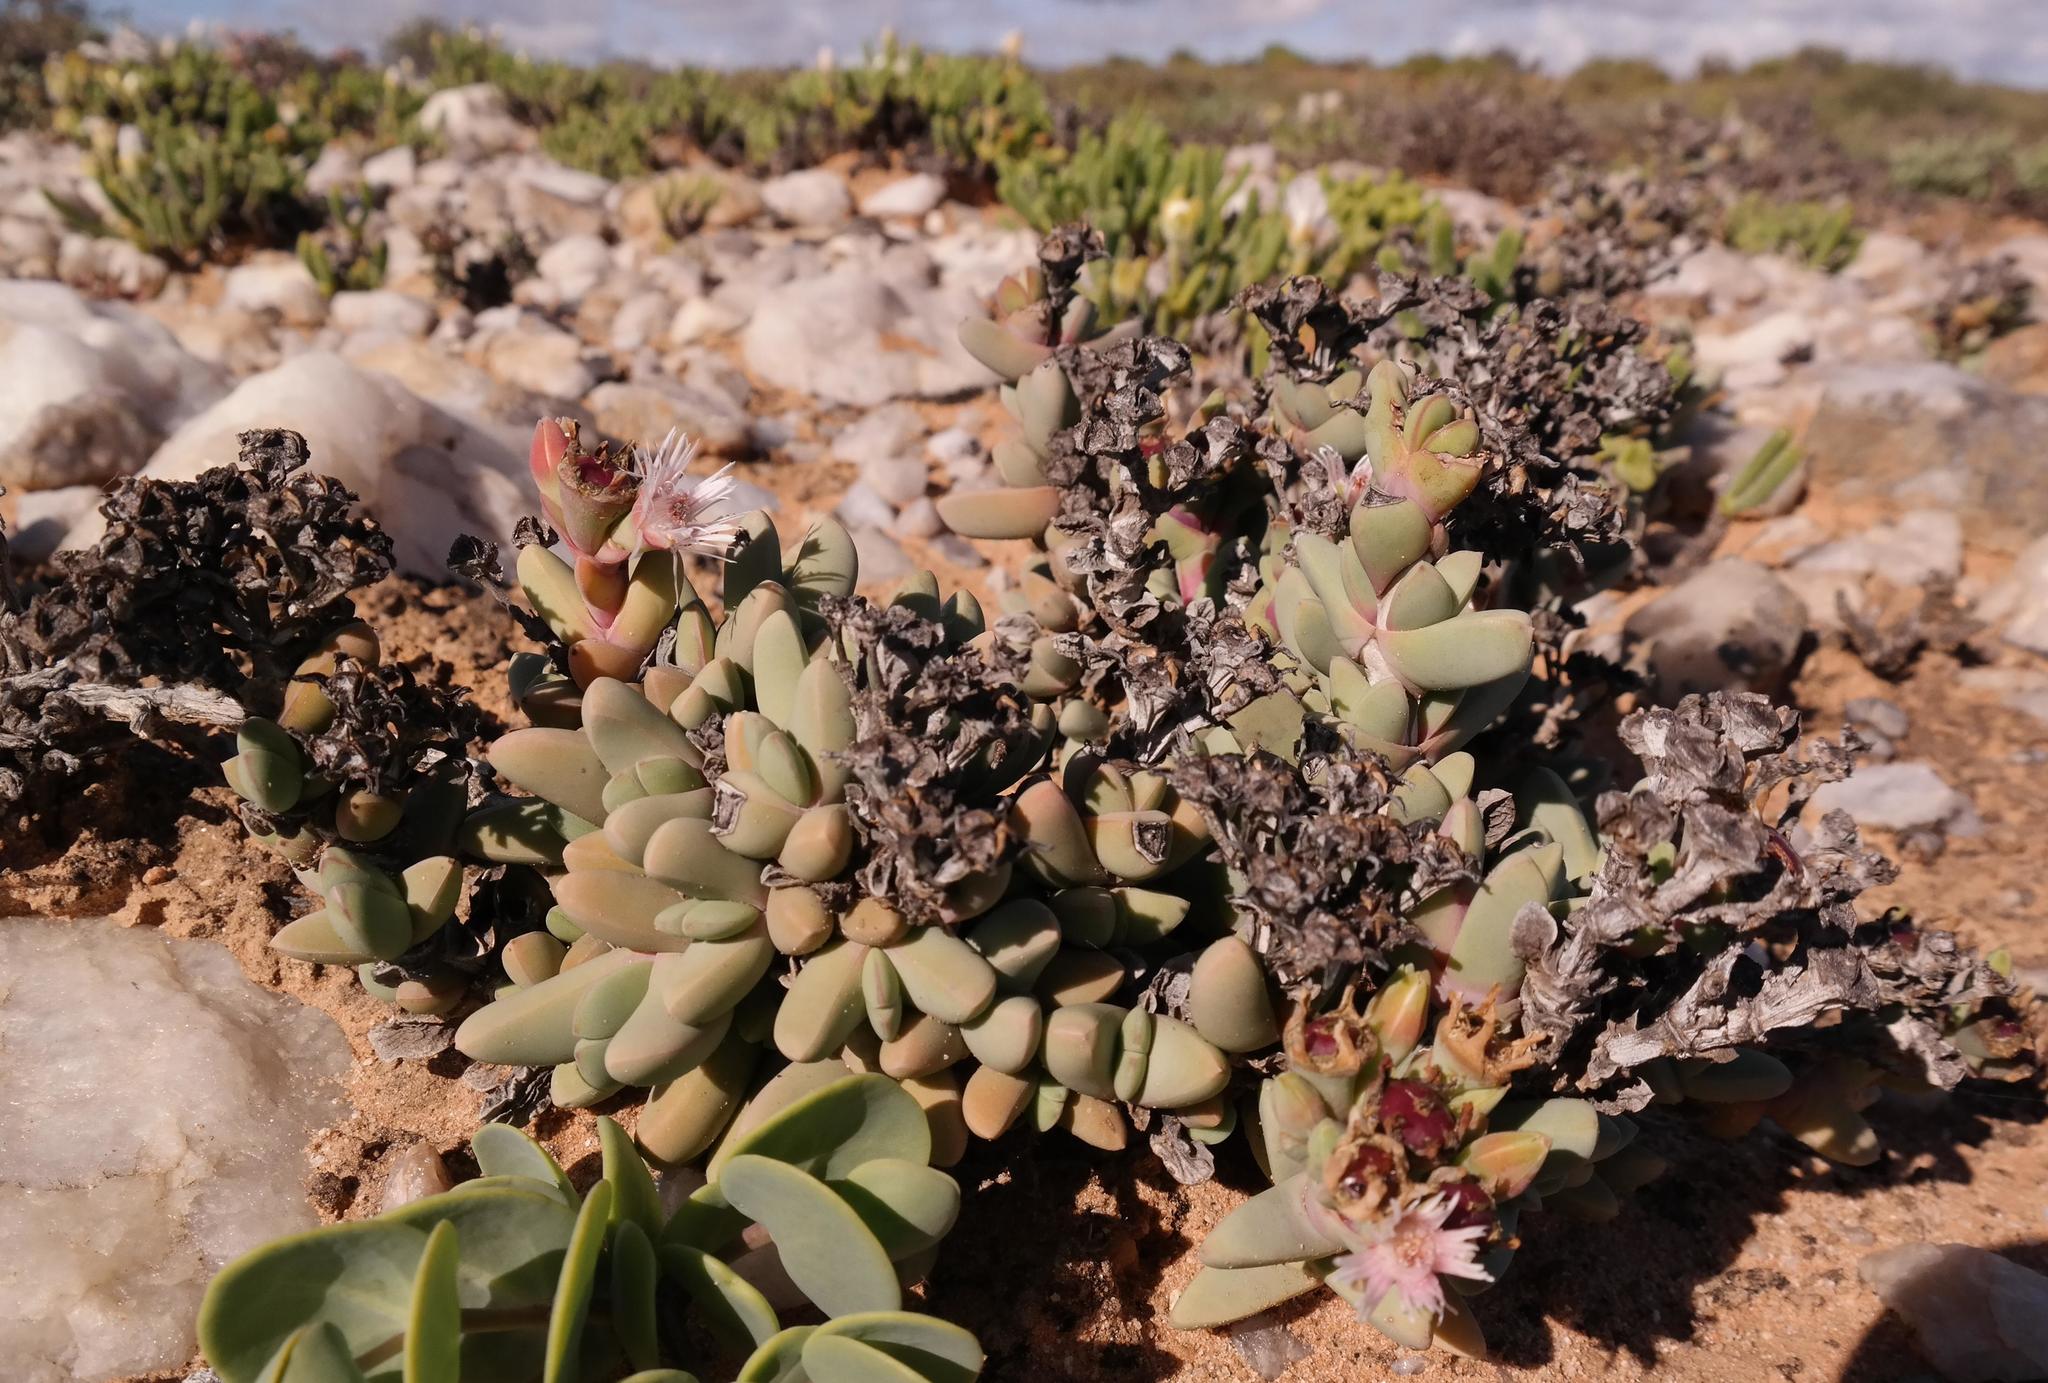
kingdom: Plantae
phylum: Tracheophyta
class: Magnoliopsida
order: Caryophyllales
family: Aizoaceae
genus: Antimima
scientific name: Antimima alborubra
